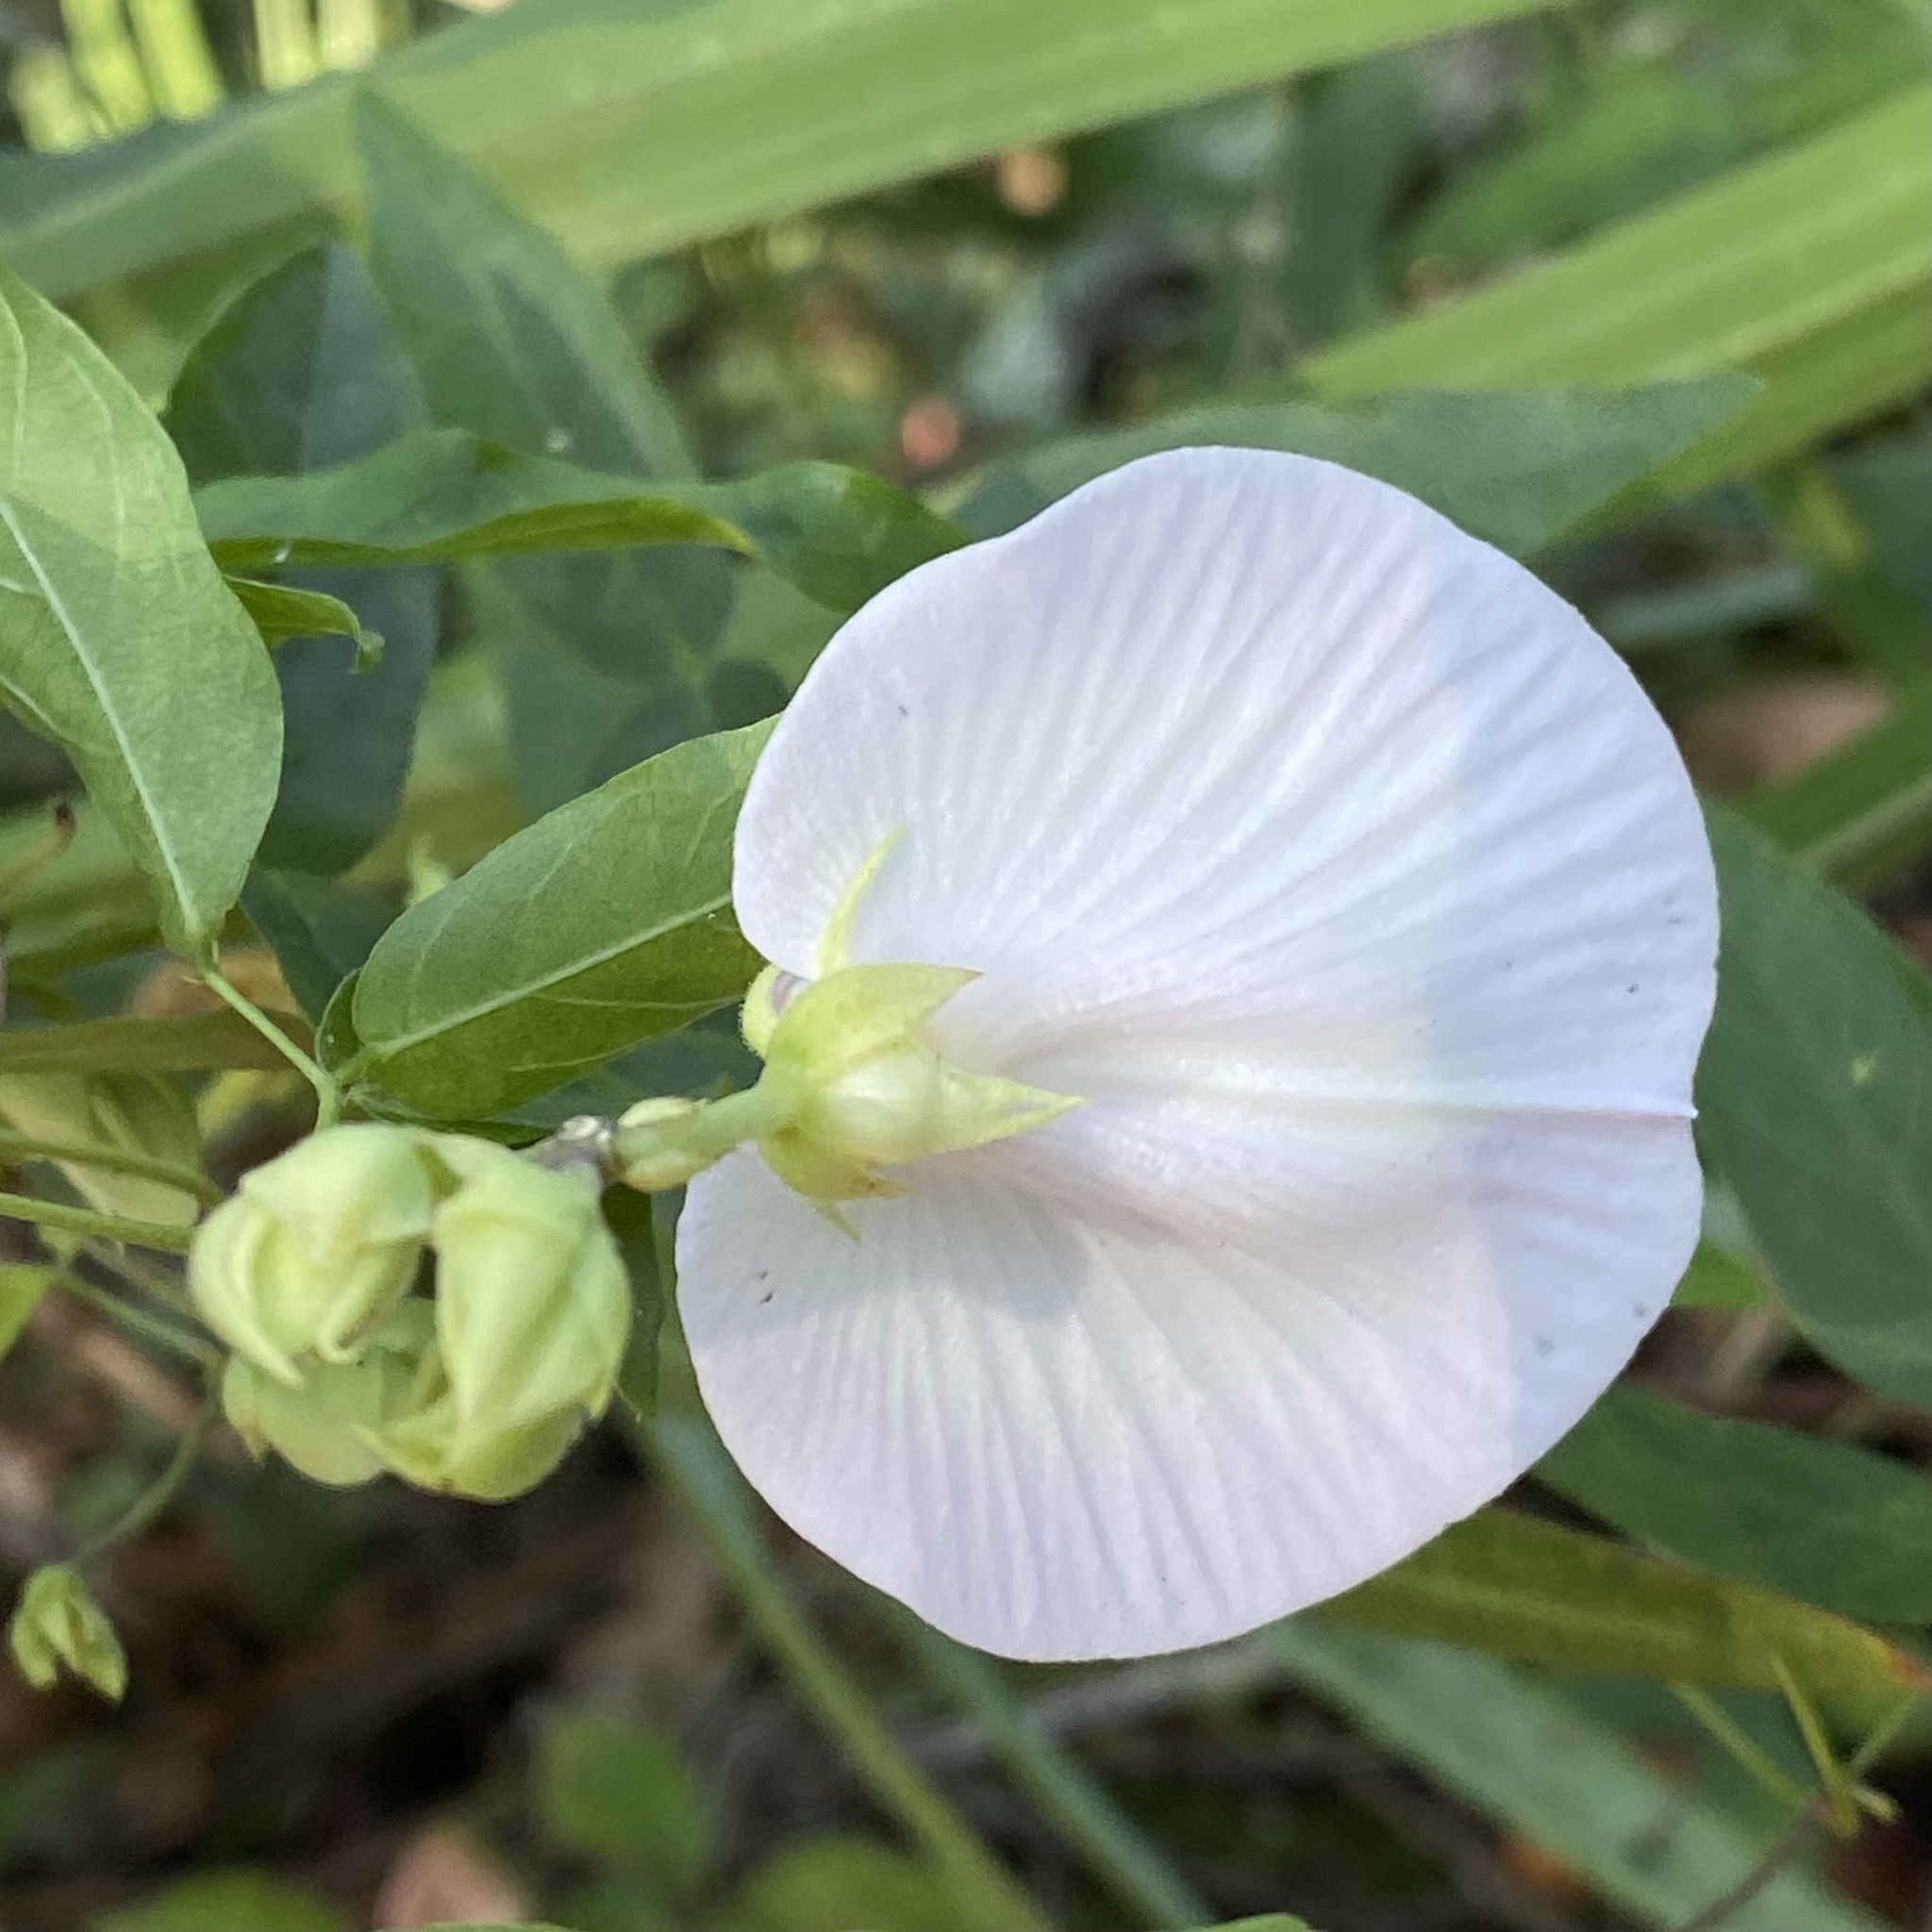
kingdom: Plantae
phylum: Tracheophyta
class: Magnoliopsida
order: Fabales
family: Fabaceae
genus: Centrosema
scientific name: Centrosema arenicola
